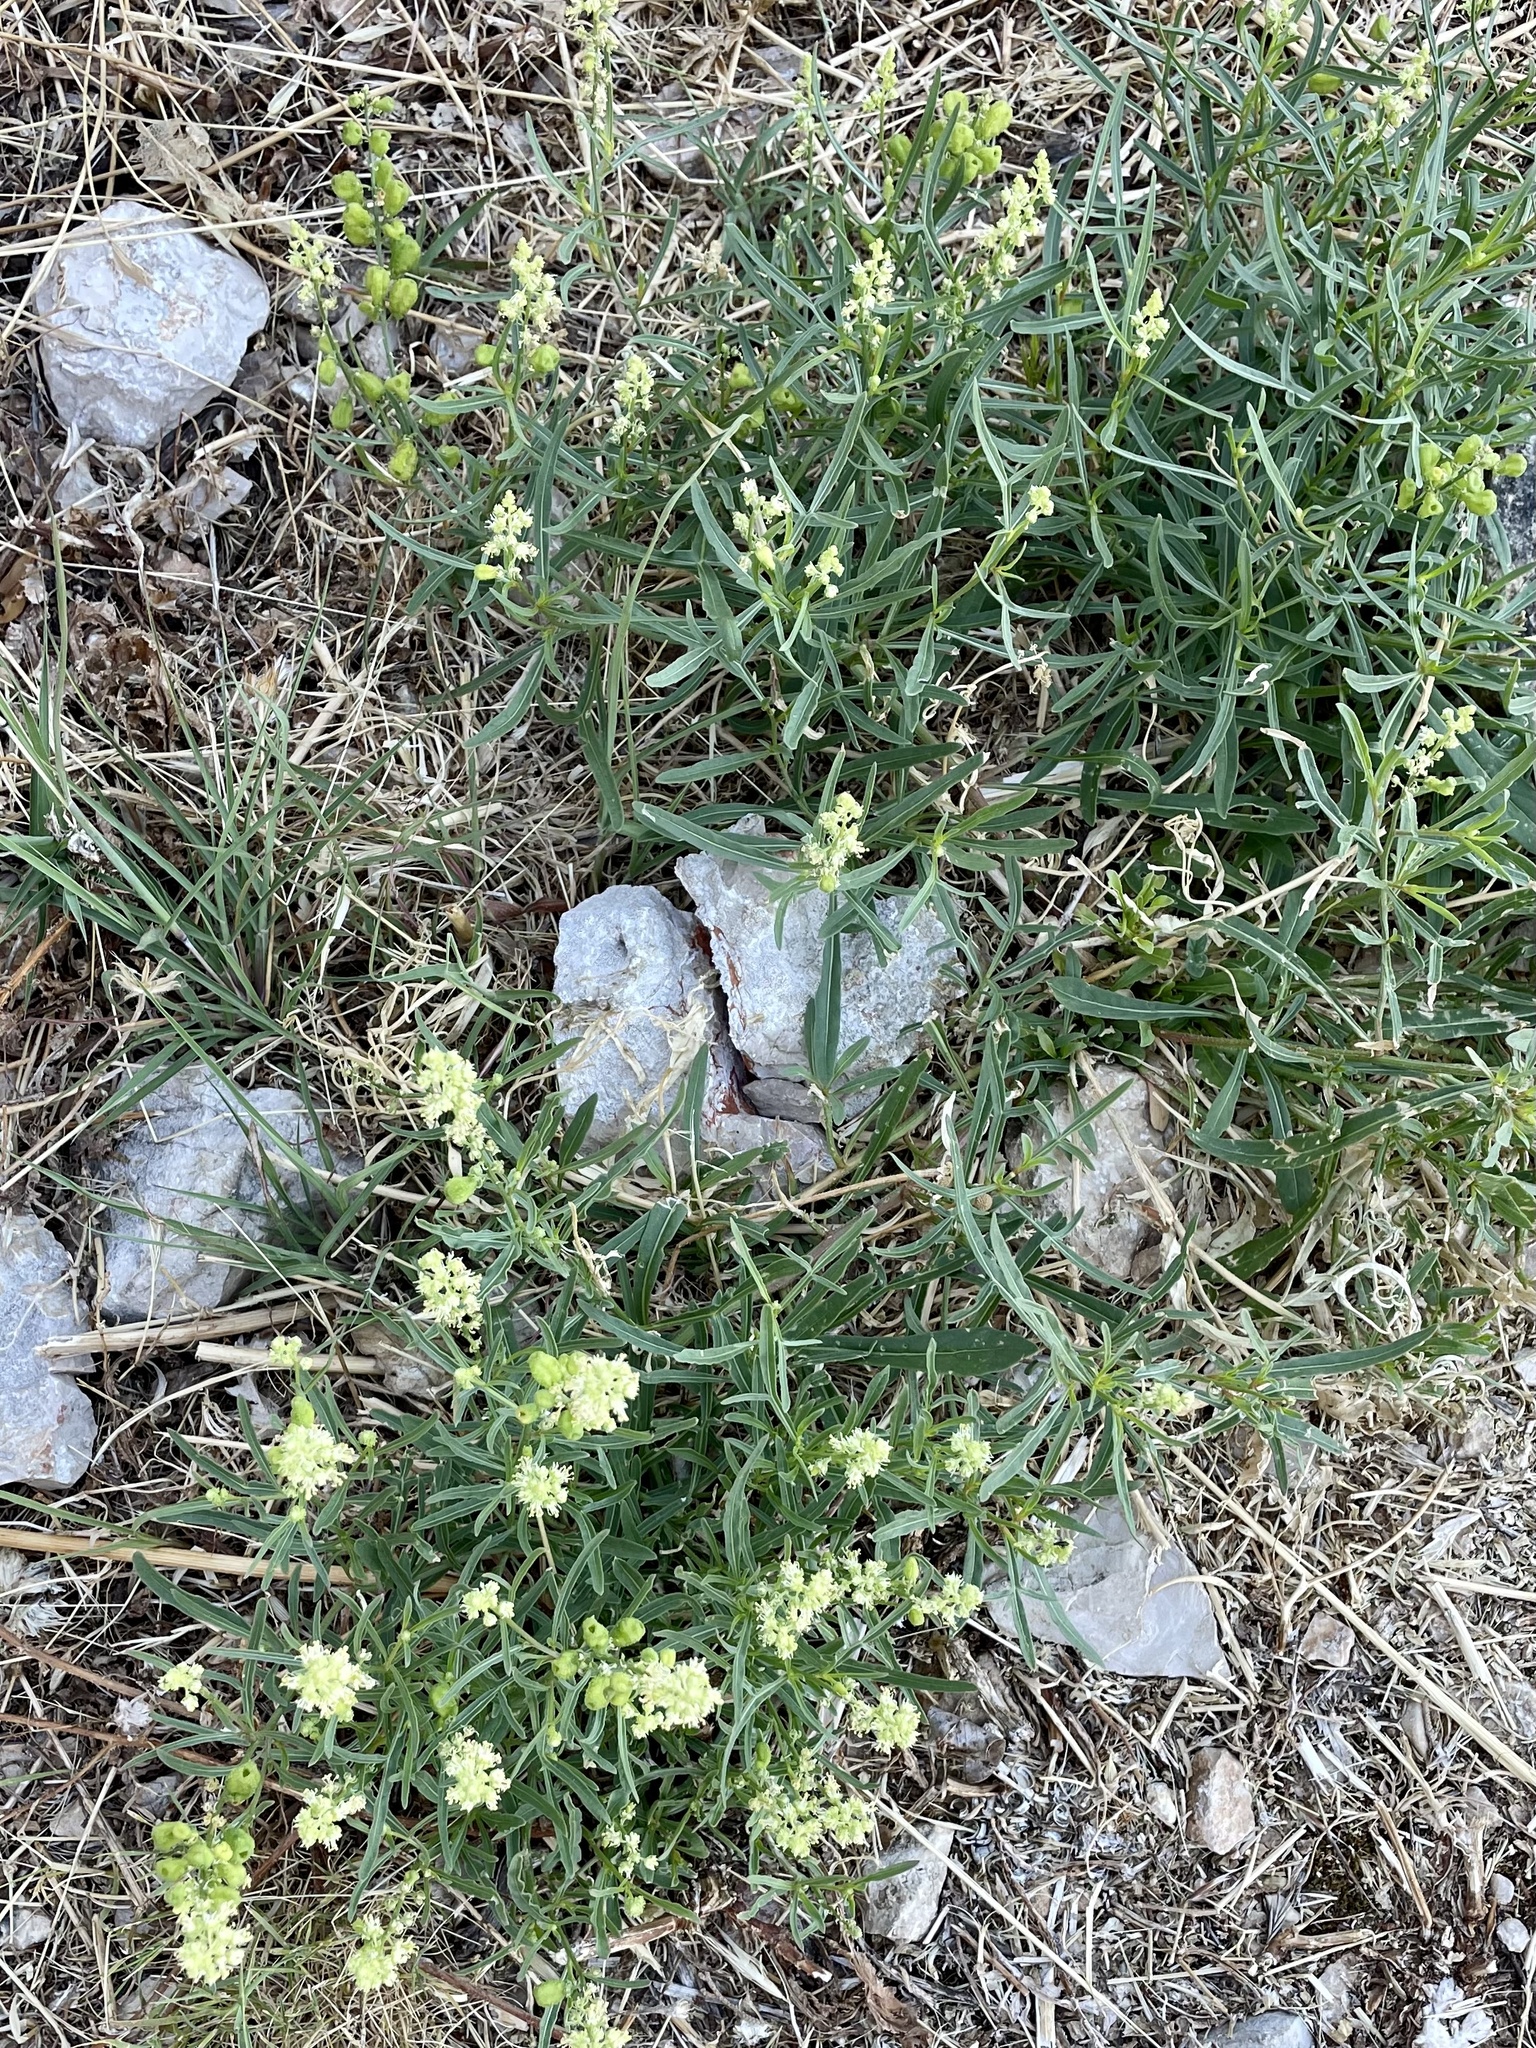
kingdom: Plantae
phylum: Tracheophyta
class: Magnoliopsida
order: Brassicales
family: Resedaceae
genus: Reseda
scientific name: Reseda lutea
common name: Wild mignonette
